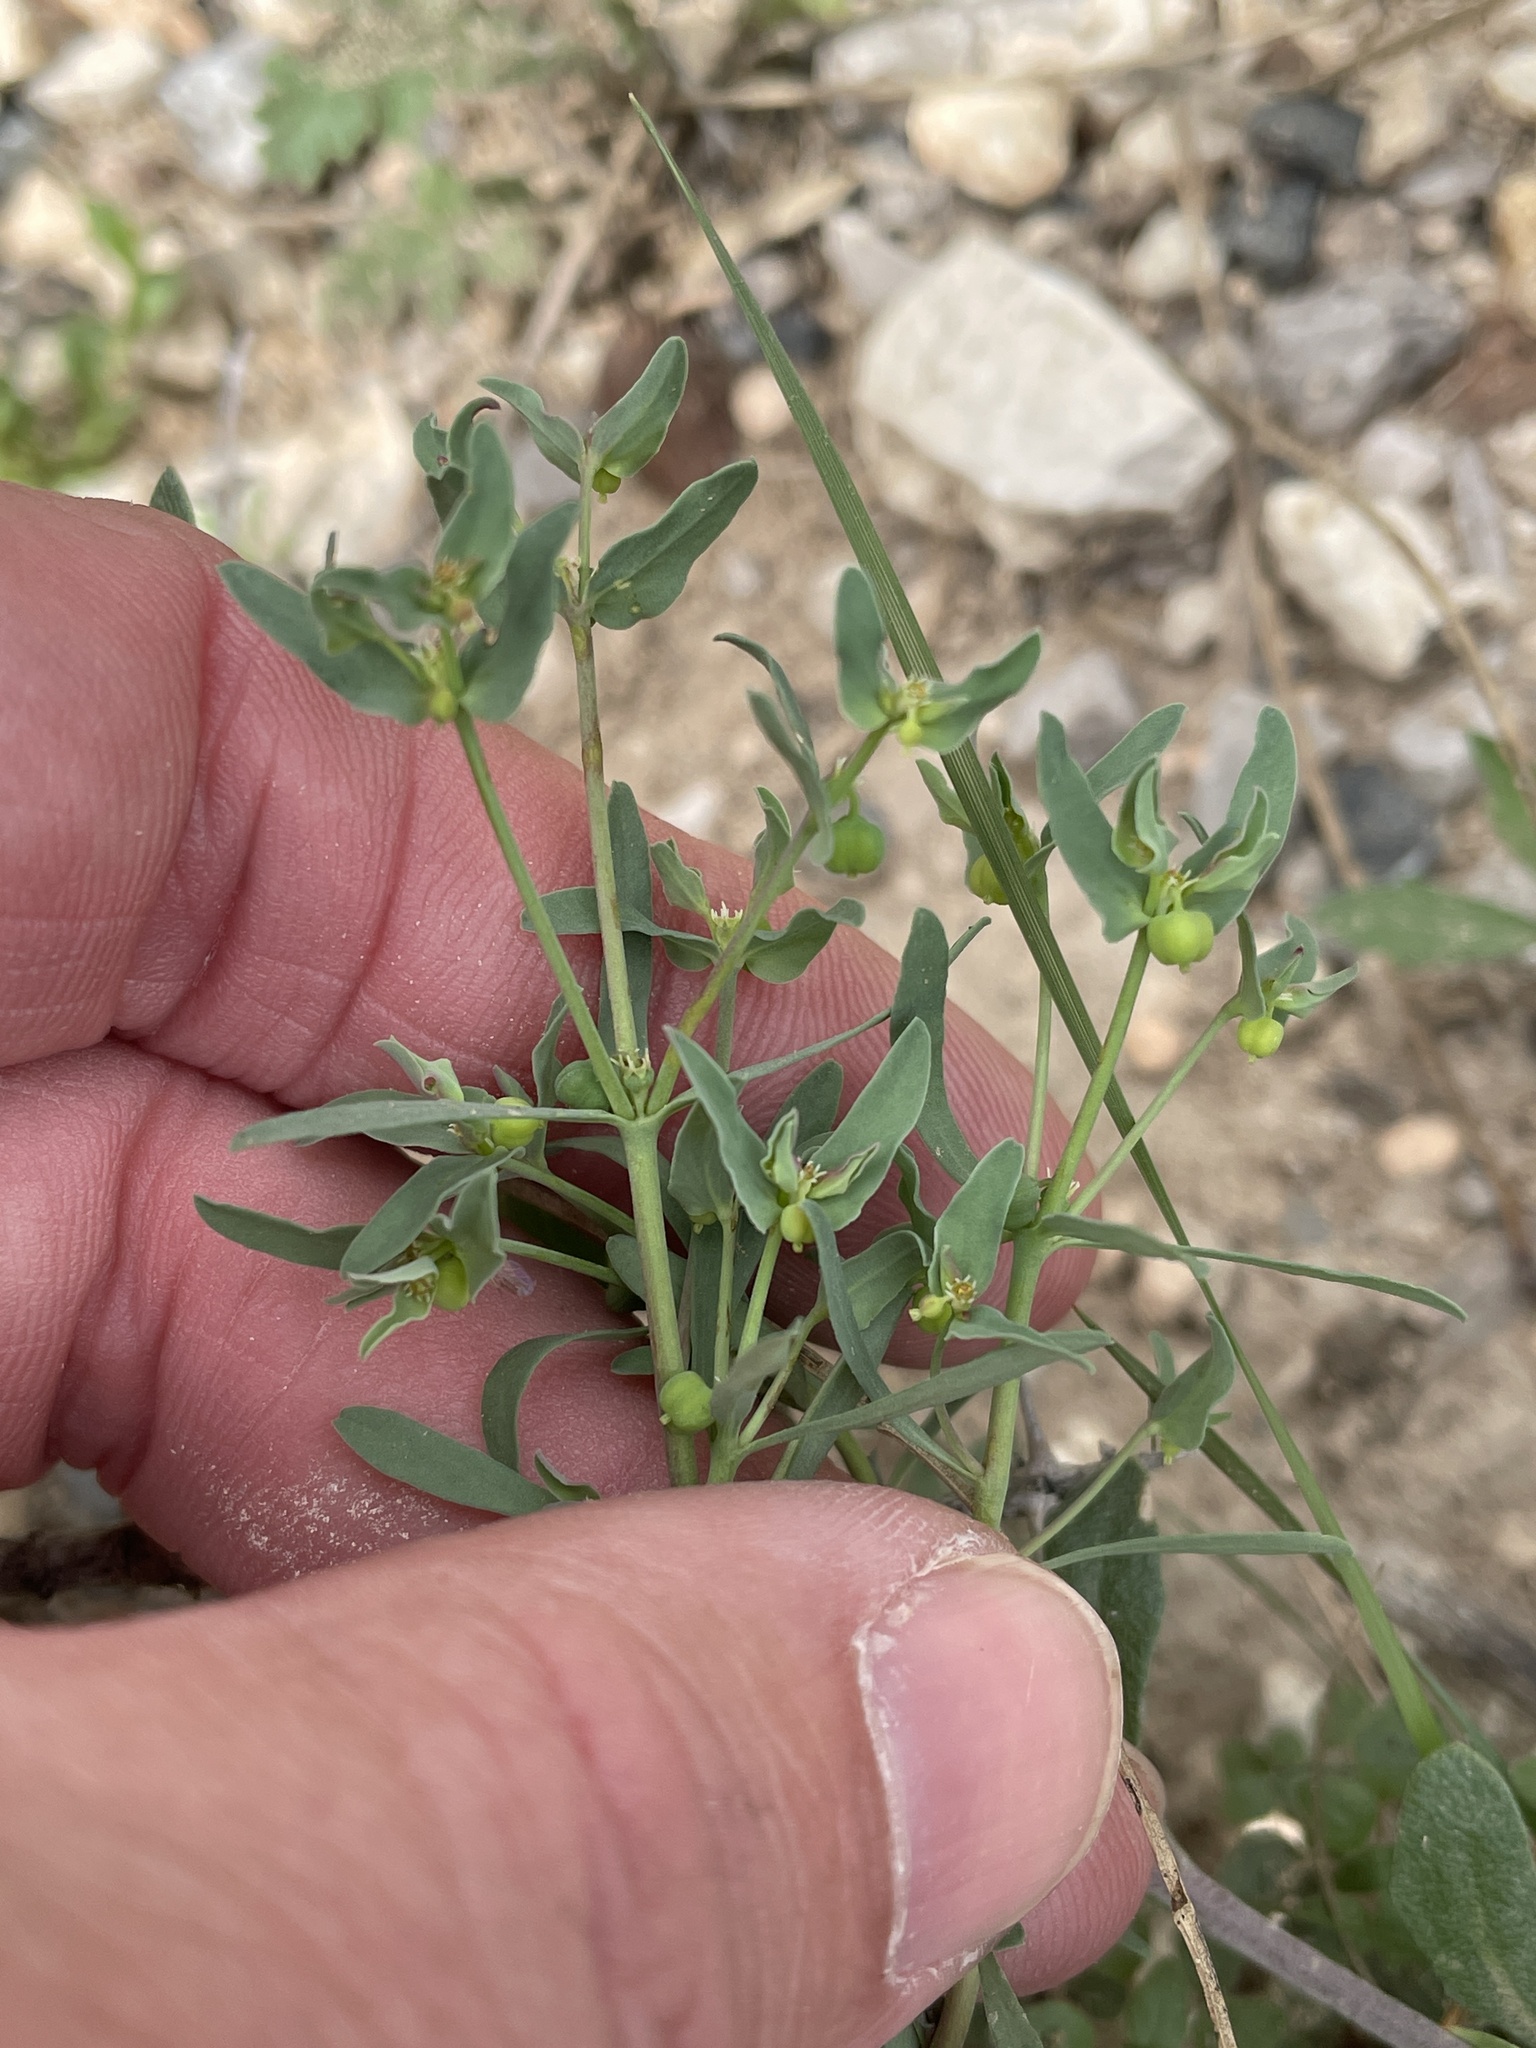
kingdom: Plantae
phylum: Tracheophyta
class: Magnoliopsida
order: Malpighiales
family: Euphorbiaceae
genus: Euphorbia
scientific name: Euphorbia peplidion
